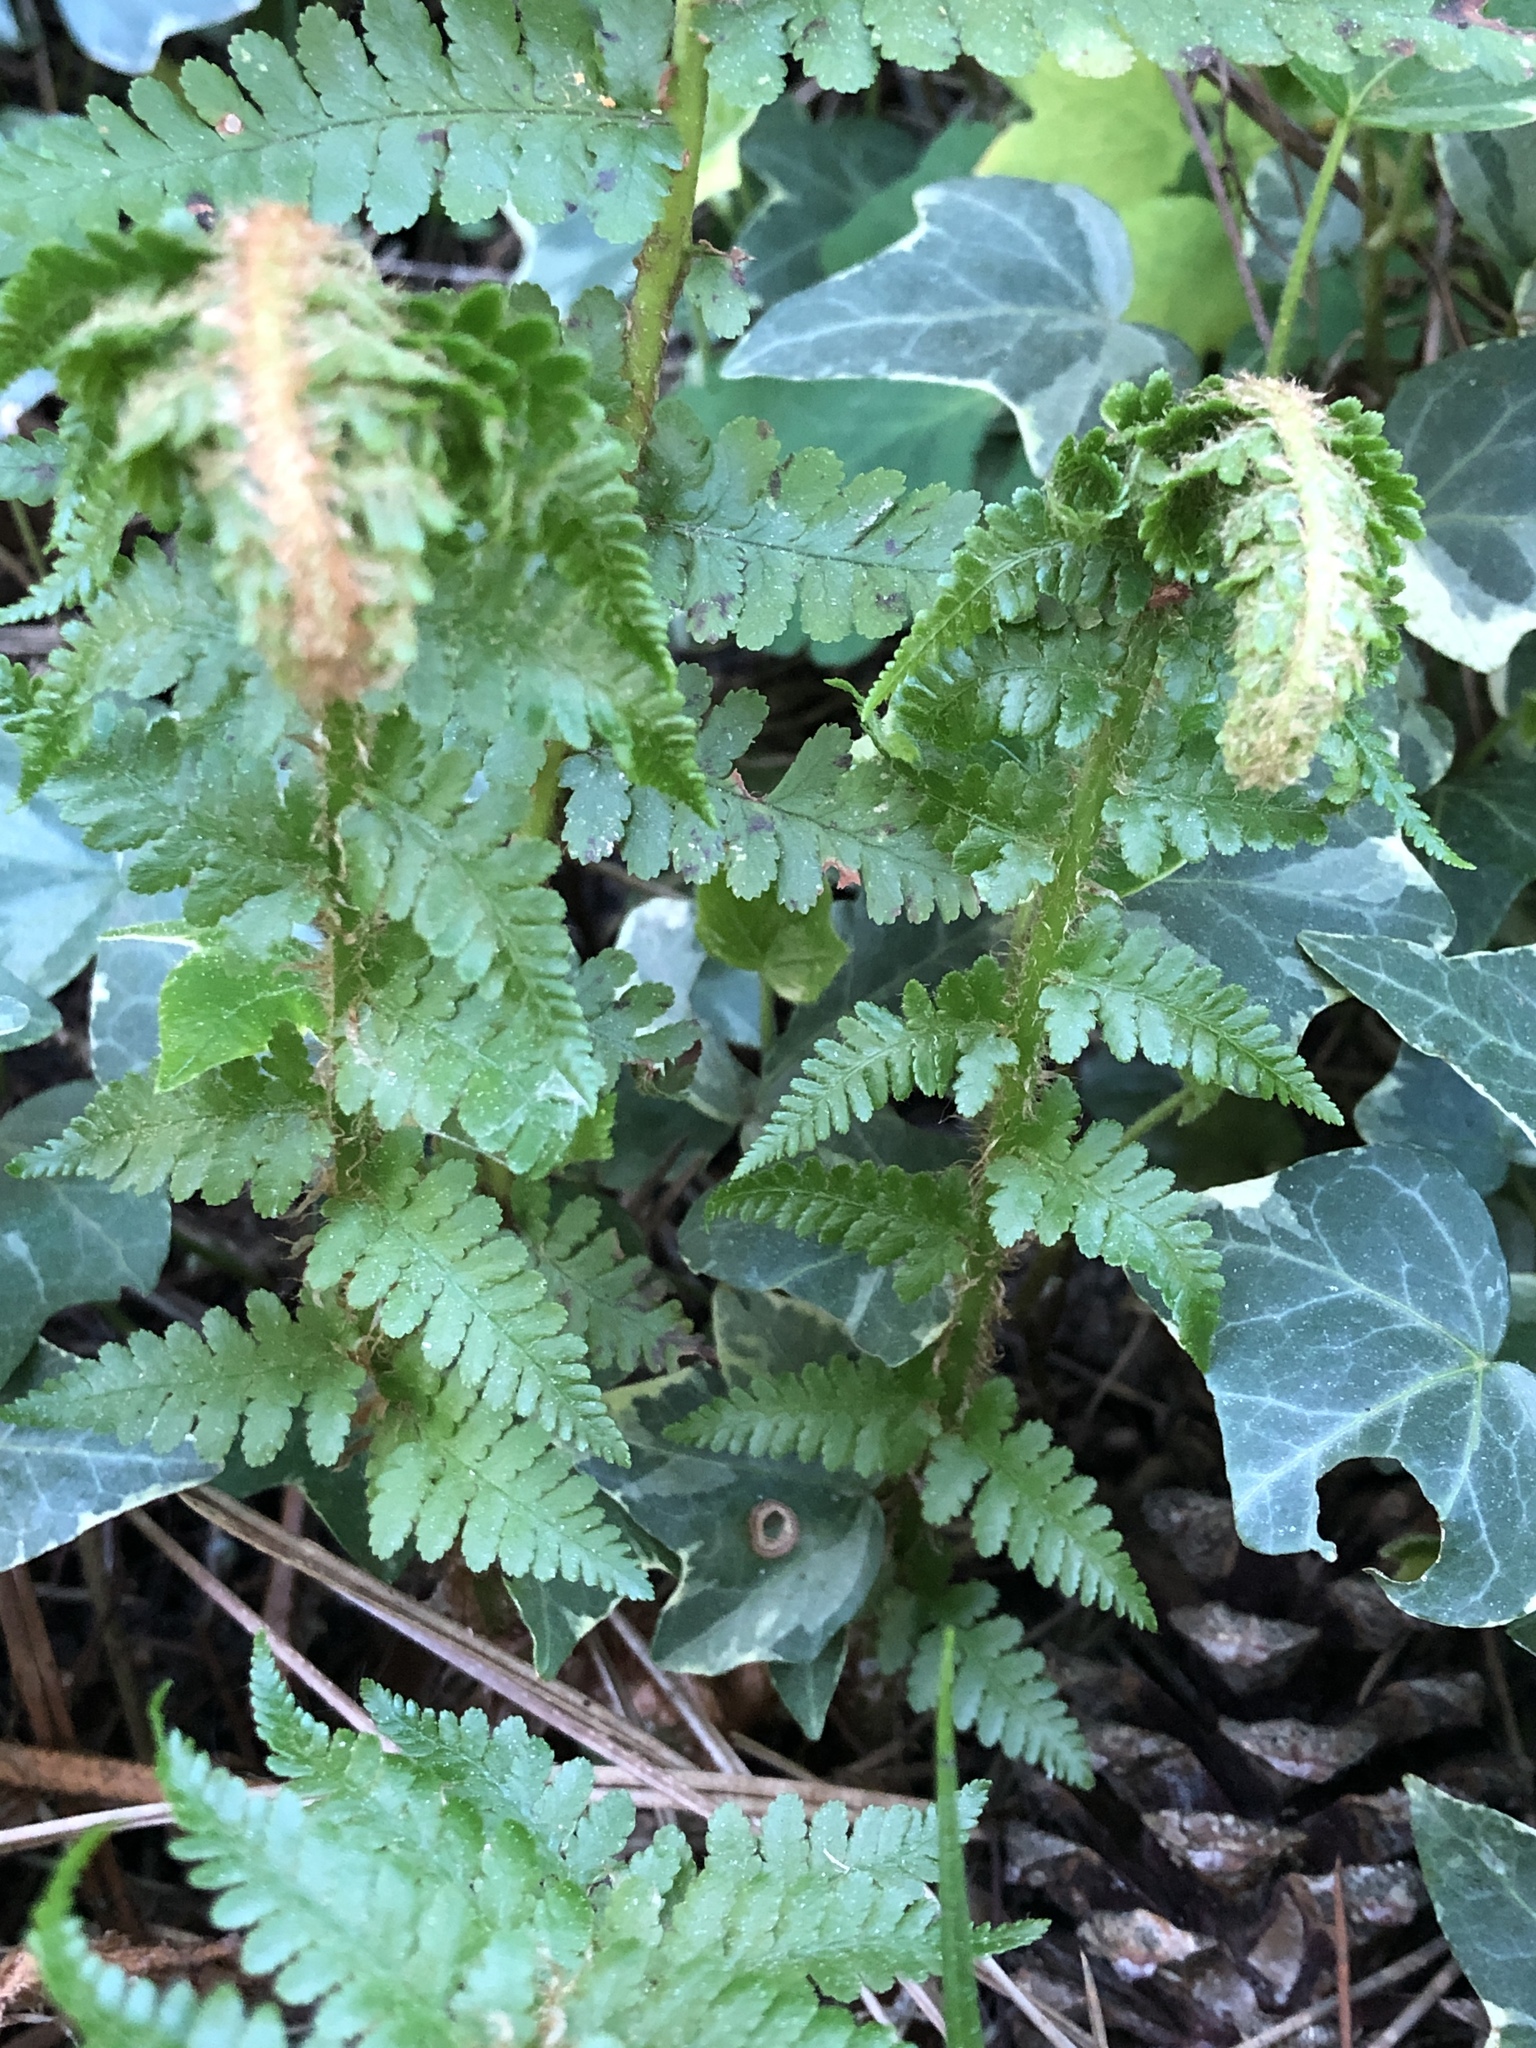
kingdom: Plantae
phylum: Tracheophyta
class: Polypodiopsida
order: Polypodiales
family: Dryopteridaceae
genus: Dryopteris
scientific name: Dryopteris filix-mas
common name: Male fern
